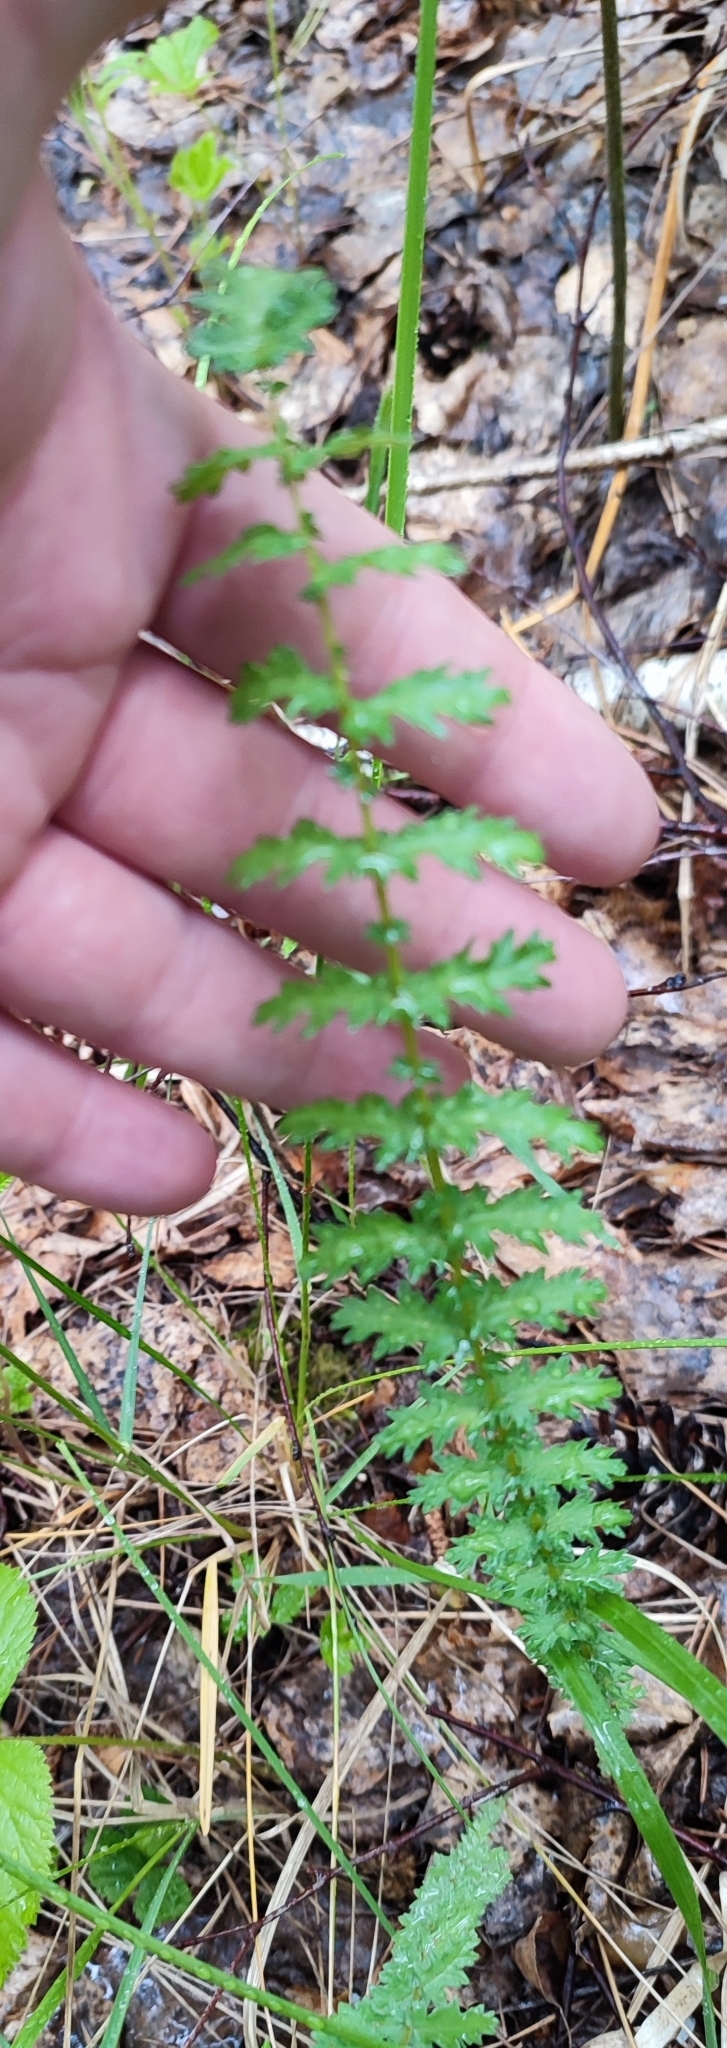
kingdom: Plantae
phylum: Tracheophyta
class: Magnoliopsida
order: Rosales
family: Rosaceae
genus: Filipendula
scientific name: Filipendula vulgaris
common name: Dropwort
